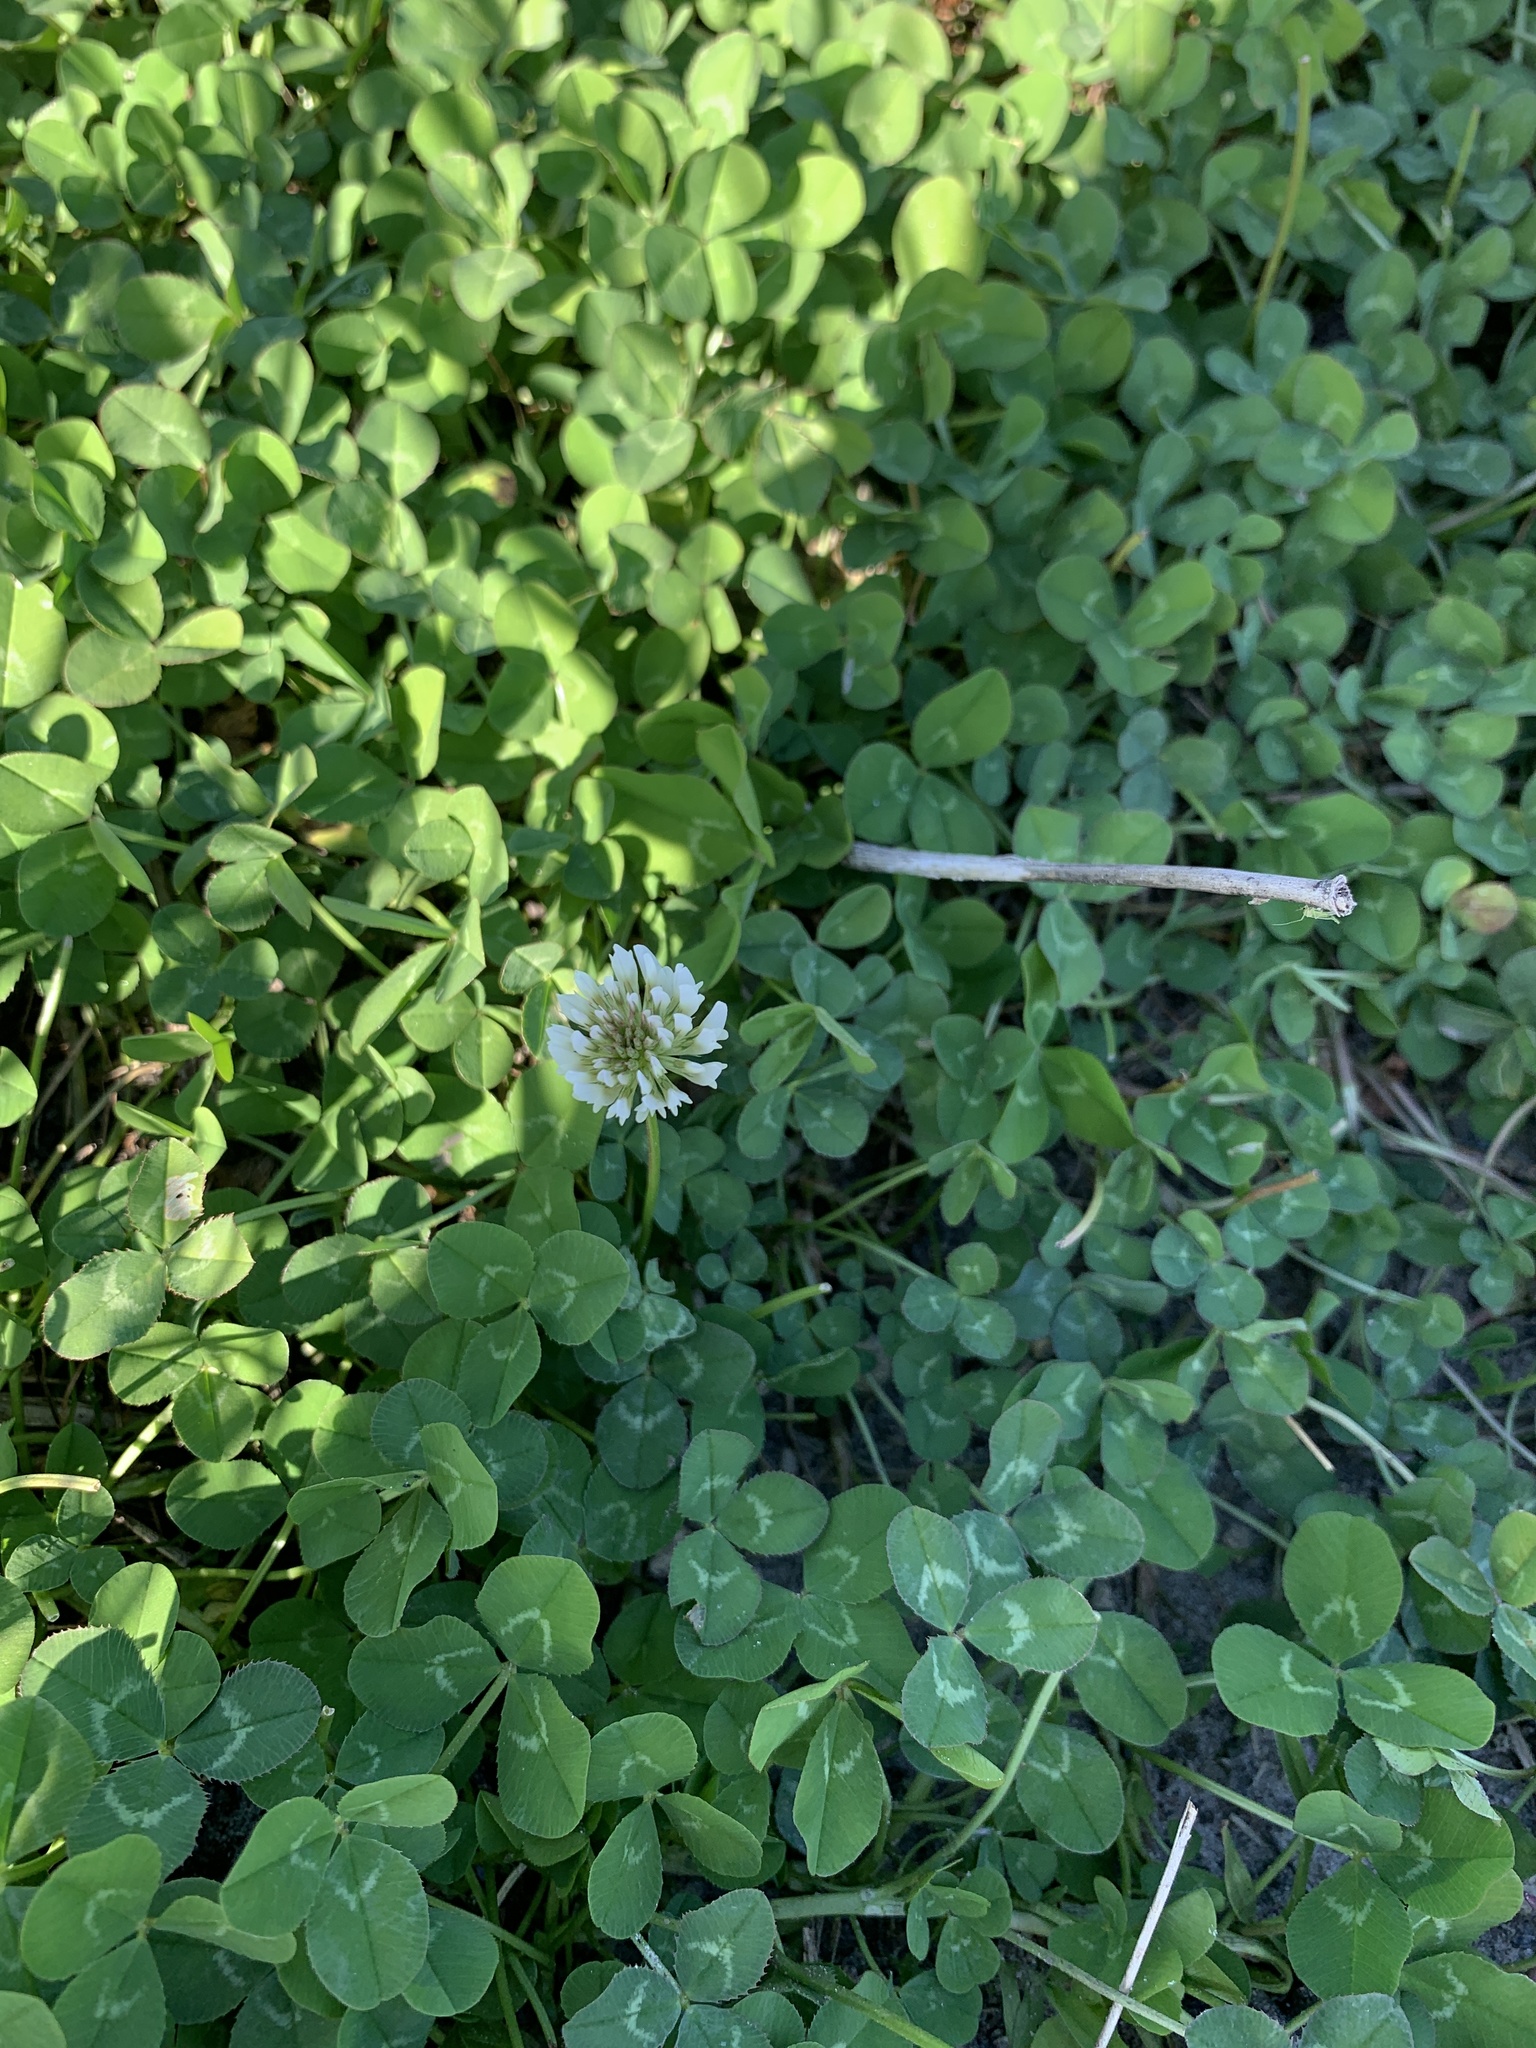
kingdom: Plantae
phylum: Tracheophyta
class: Magnoliopsida
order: Fabales
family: Fabaceae
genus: Trifolium
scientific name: Trifolium repens
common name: White clover
